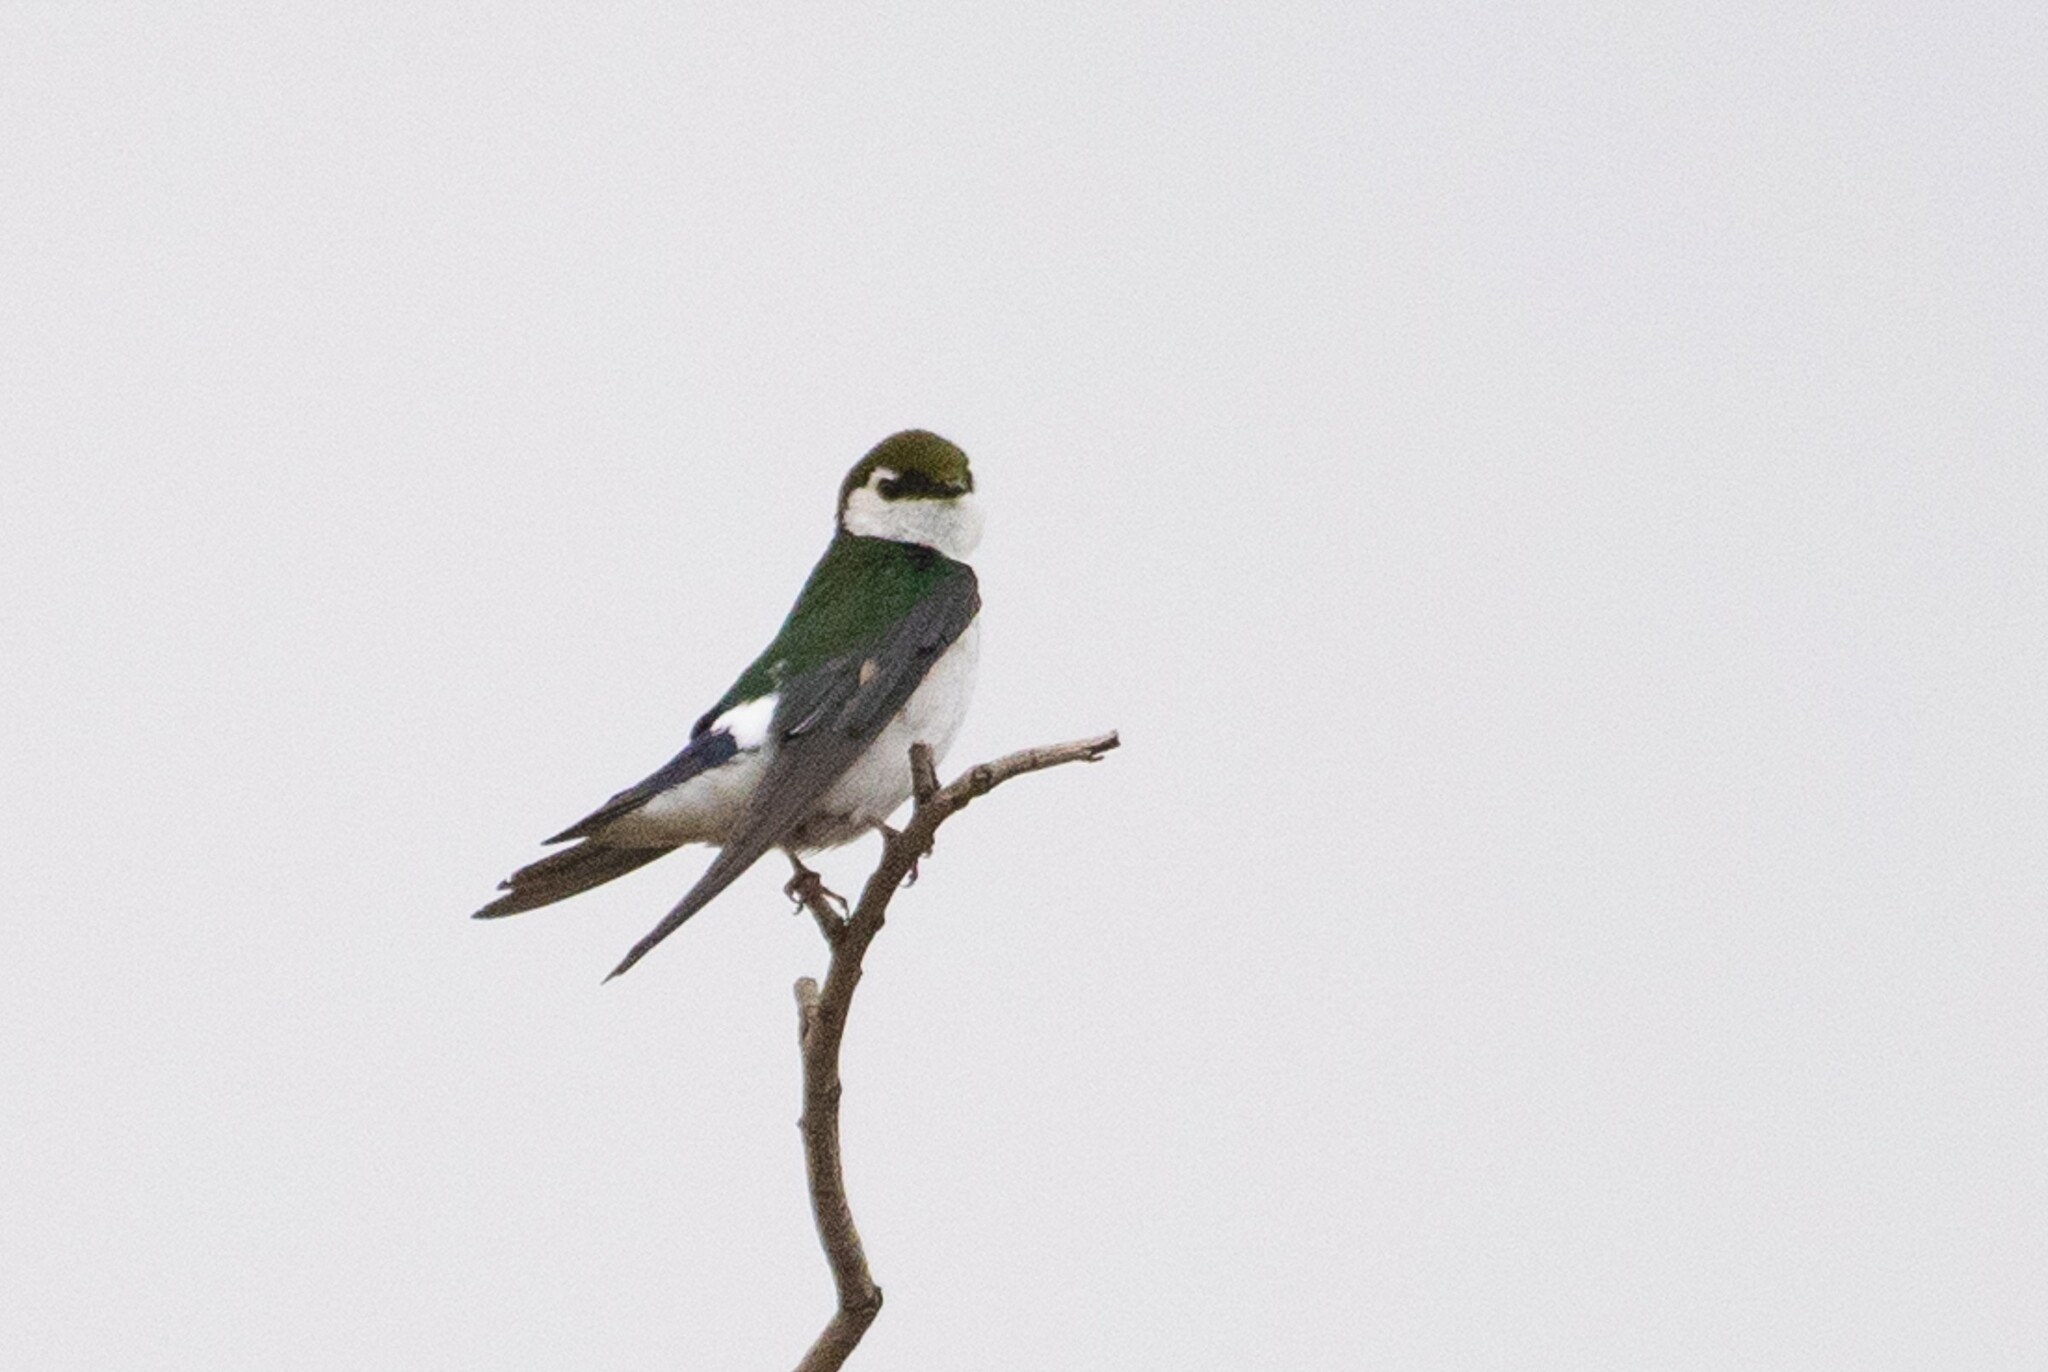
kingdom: Animalia
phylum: Chordata
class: Aves
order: Passeriformes
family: Hirundinidae
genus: Tachycineta
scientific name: Tachycineta thalassina
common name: Violet-green swallow
